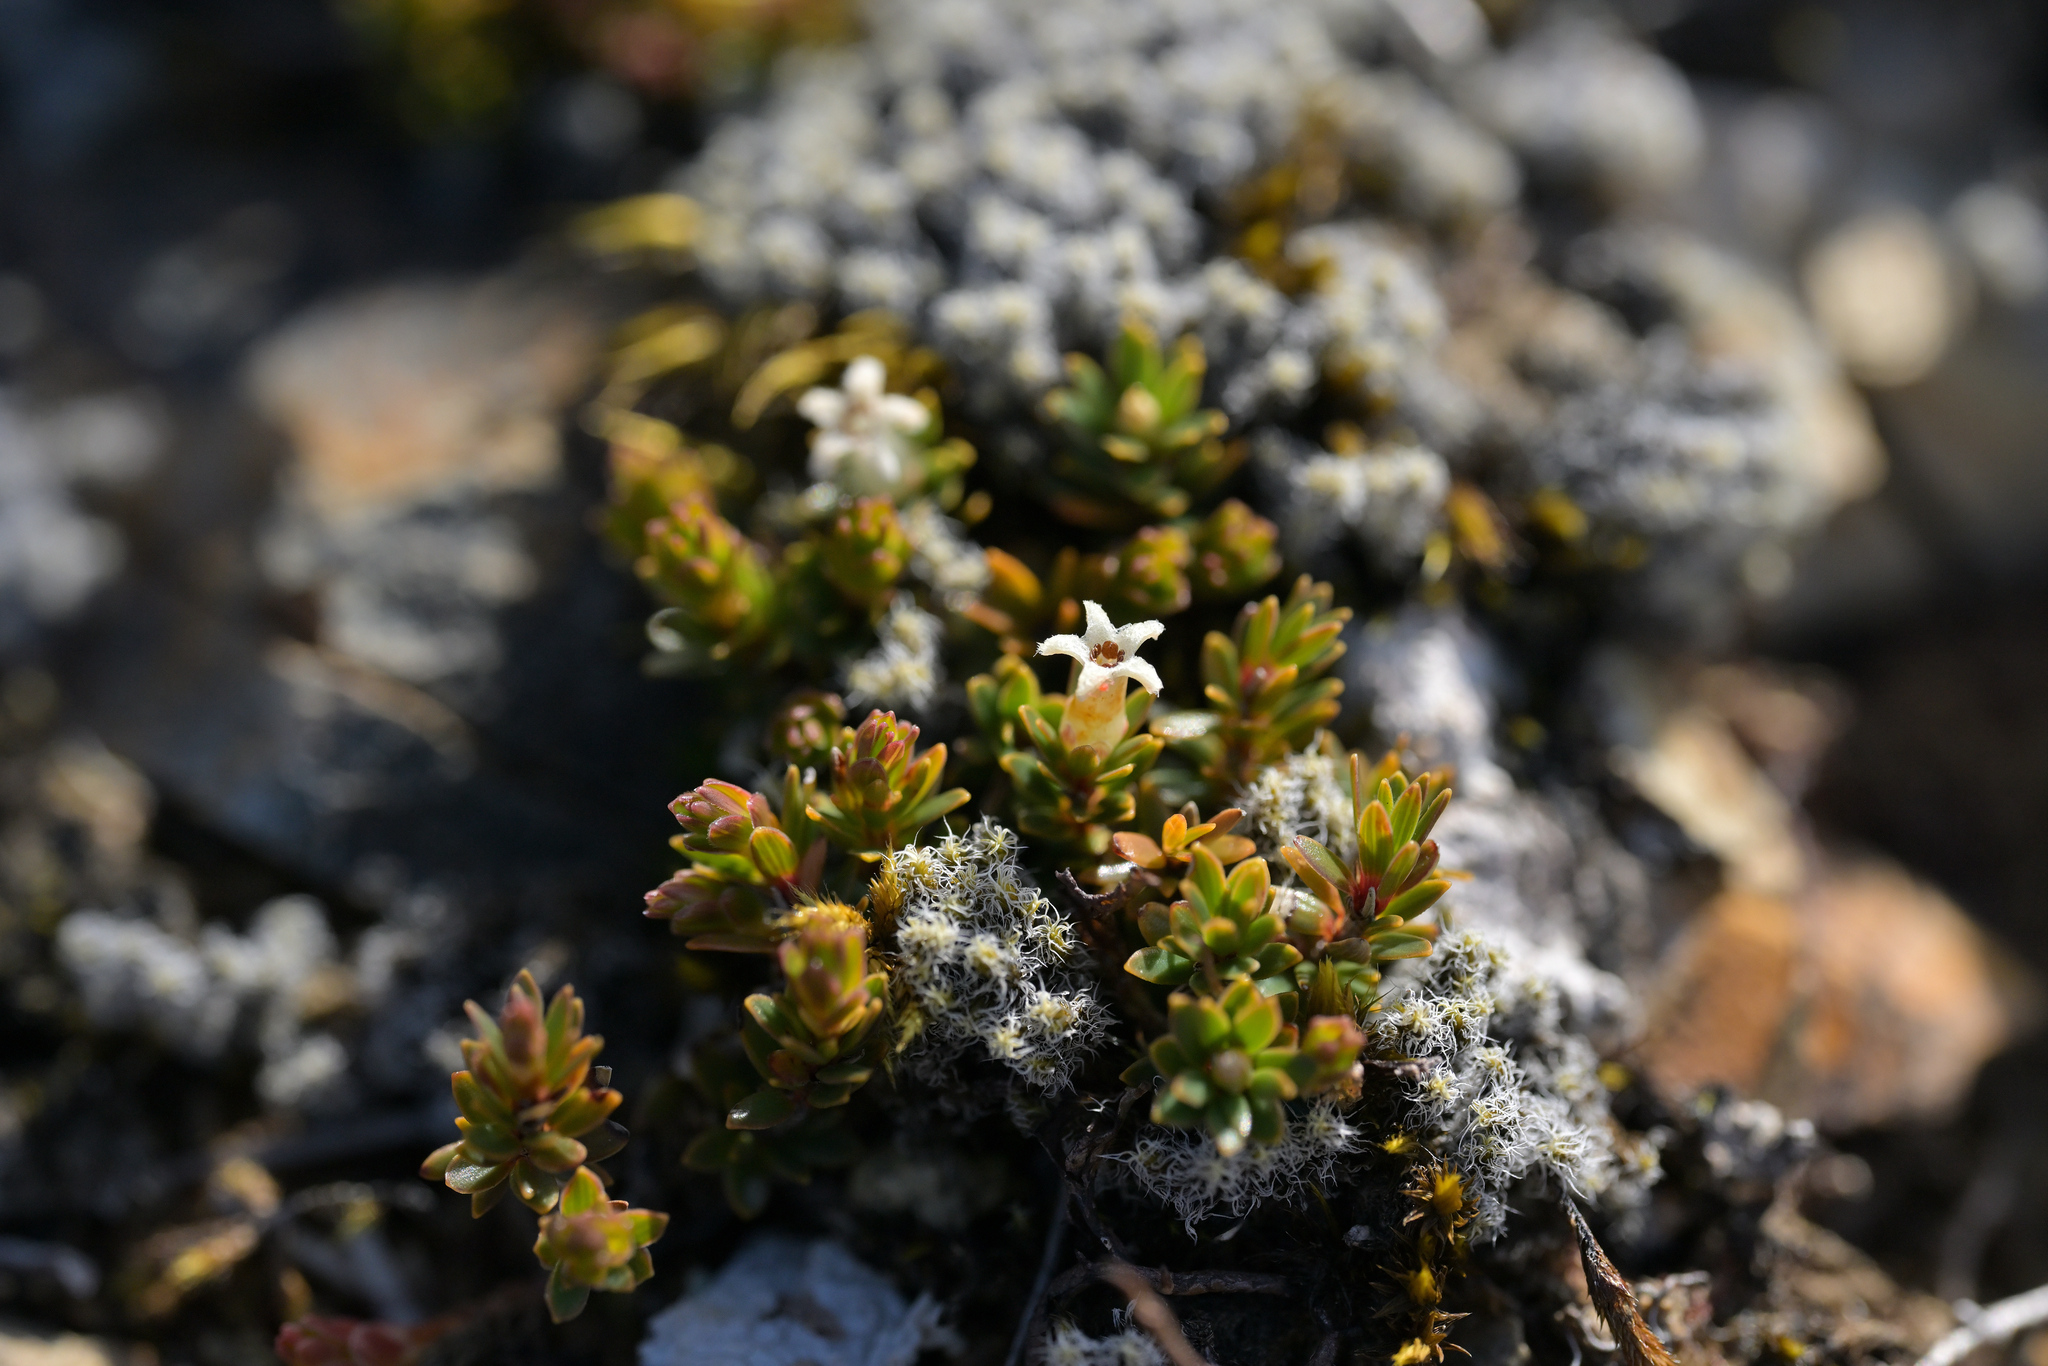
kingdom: Plantae
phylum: Tracheophyta
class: Magnoliopsida
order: Ericales
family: Ericaceae
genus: Pentachondra
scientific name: Pentachondra pumila
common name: Carpet-heath
